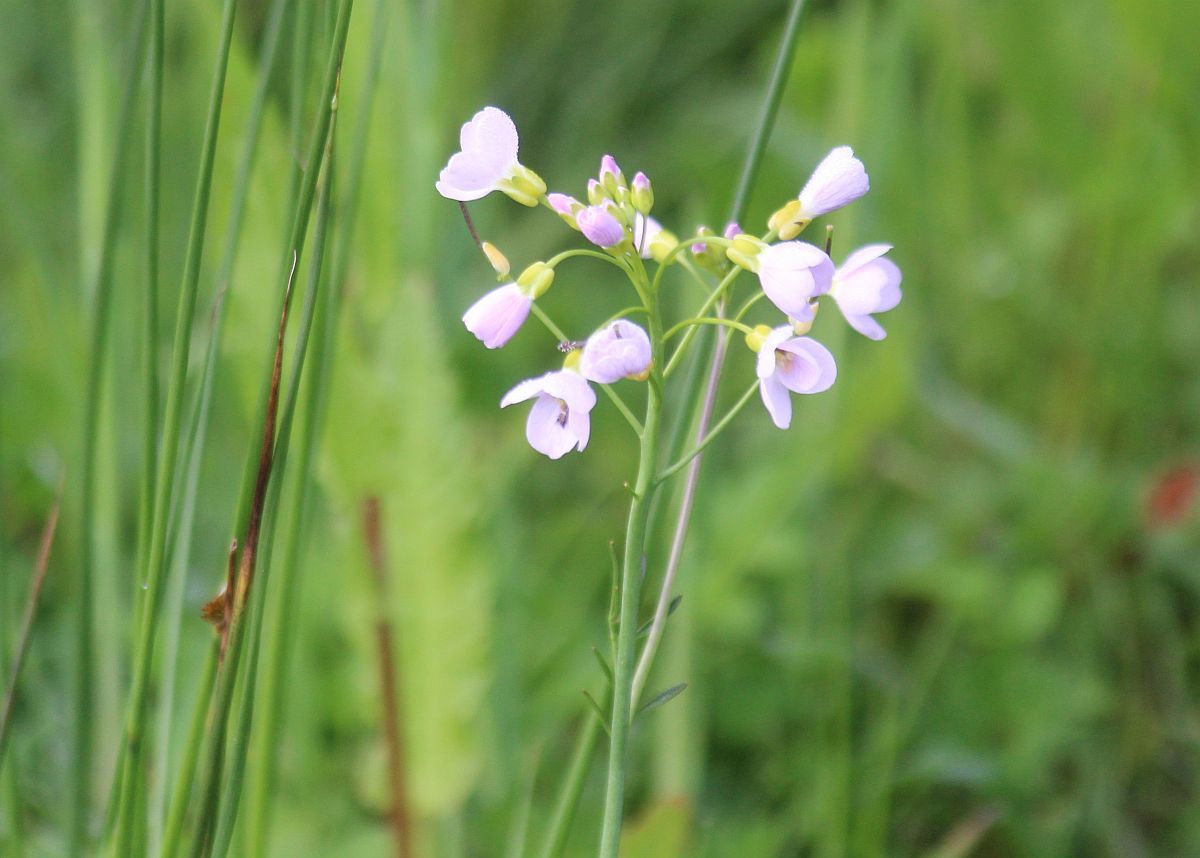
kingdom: Plantae
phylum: Tracheophyta
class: Magnoliopsida
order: Brassicales
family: Brassicaceae
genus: Cardamine
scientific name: Cardamine pratensis
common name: Cuckoo flower
